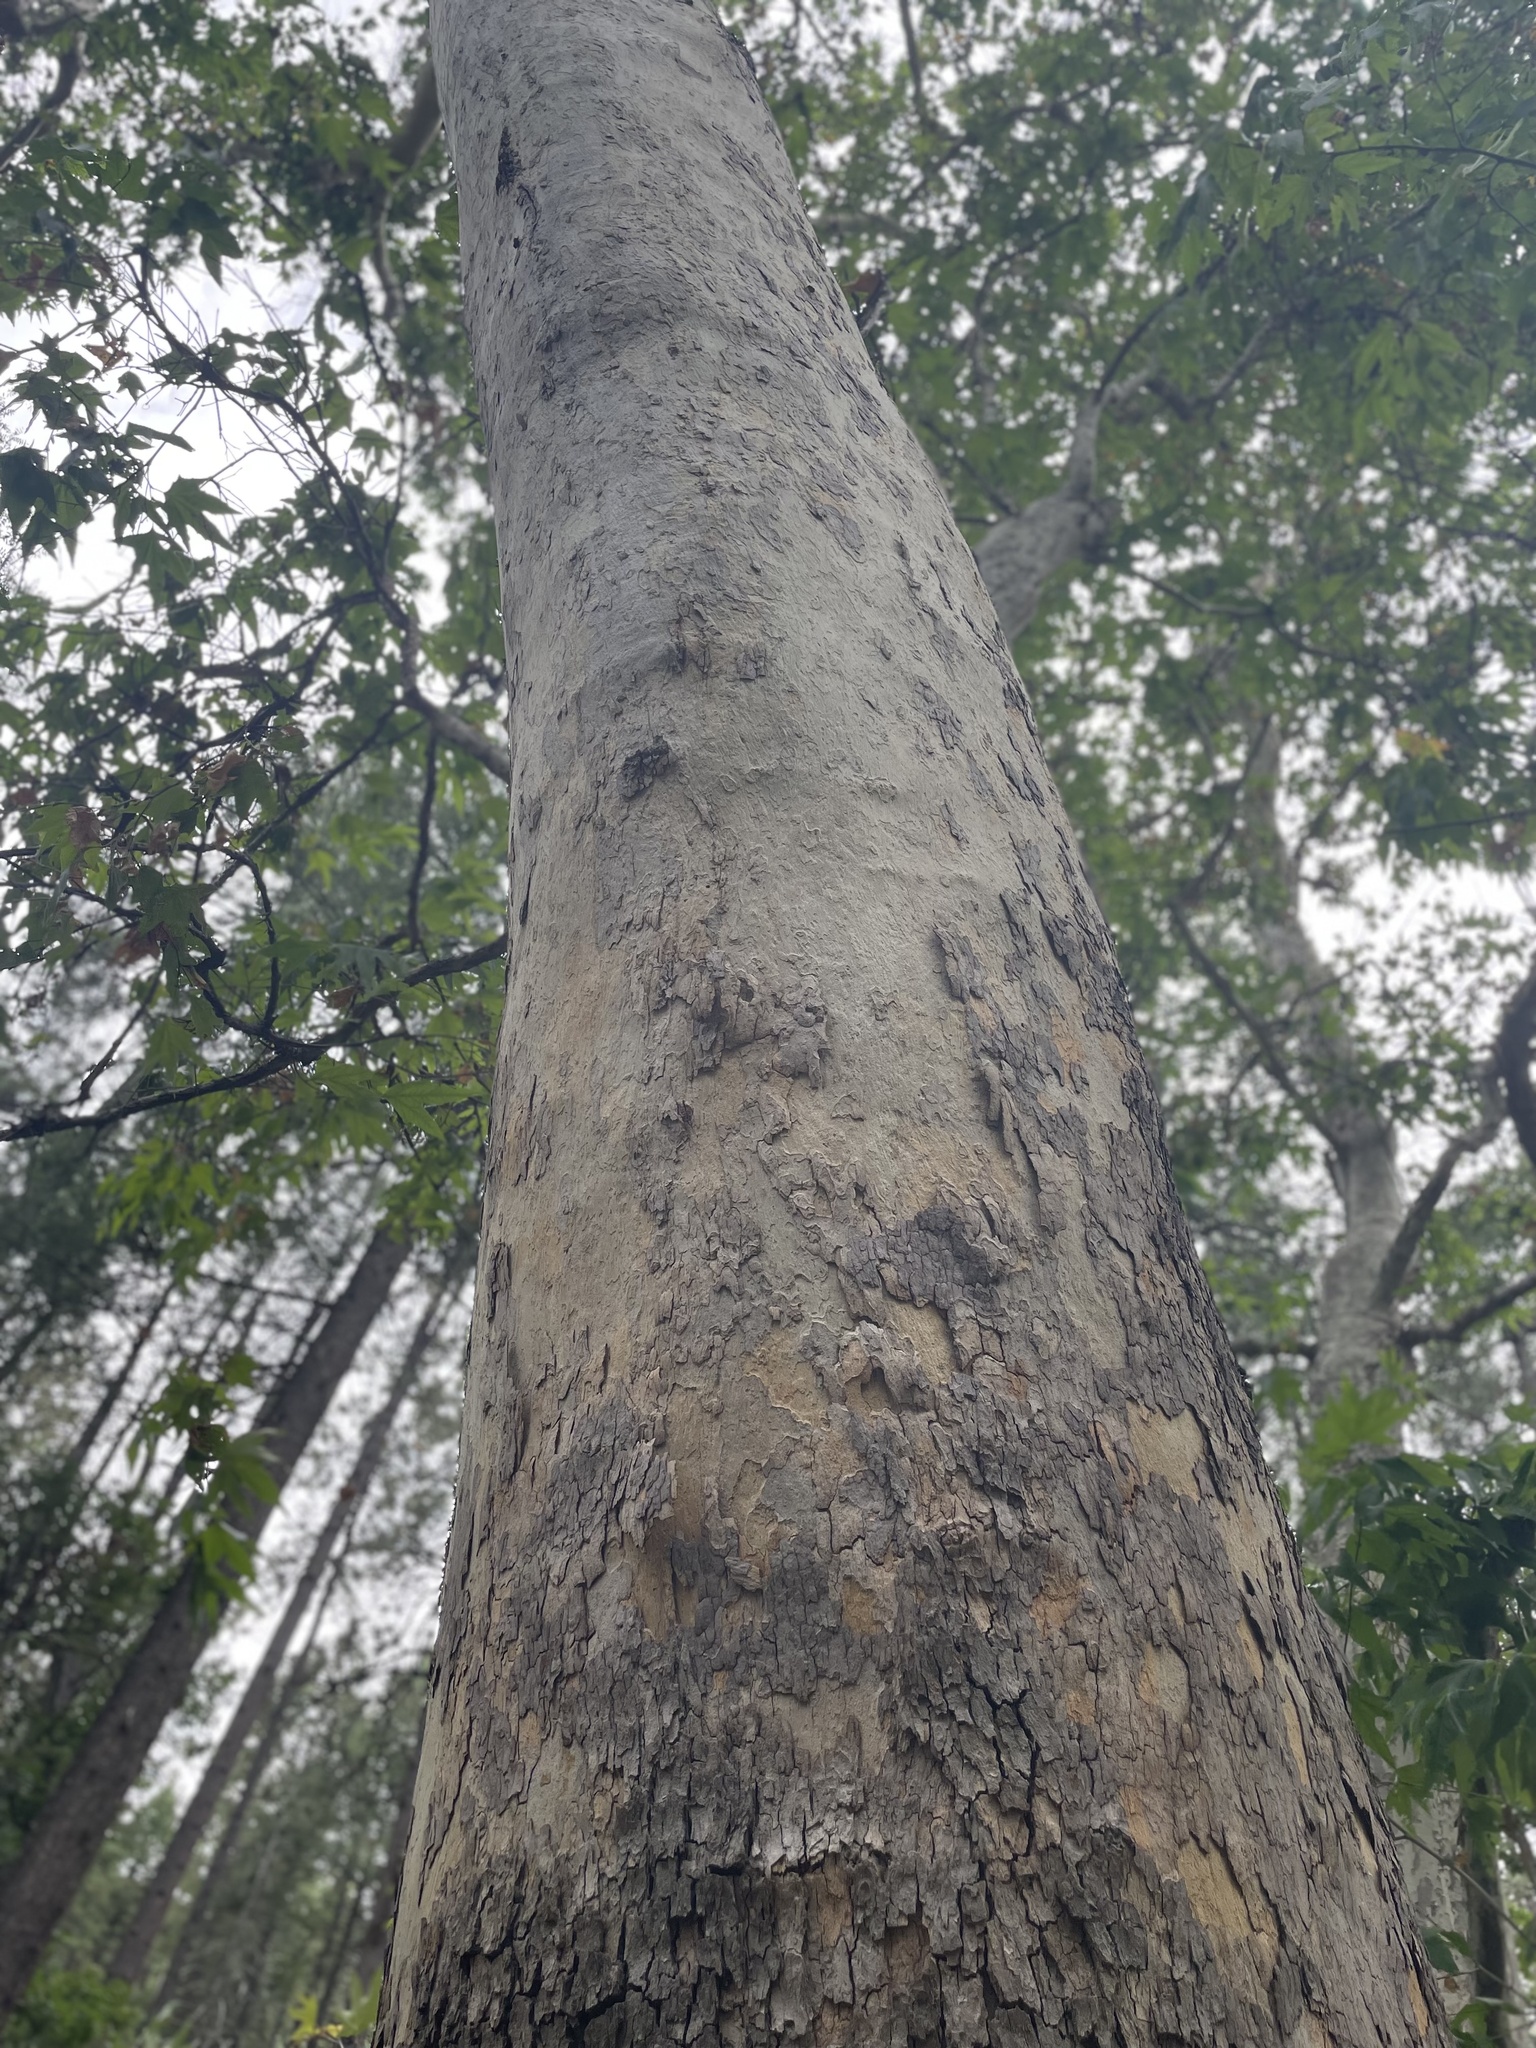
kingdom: Plantae
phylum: Tracheophyta
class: Magnoliopsida
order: Proteales
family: Platanaceae
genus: Platanus
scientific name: Platanus wrightii
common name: Arizona sycamore
